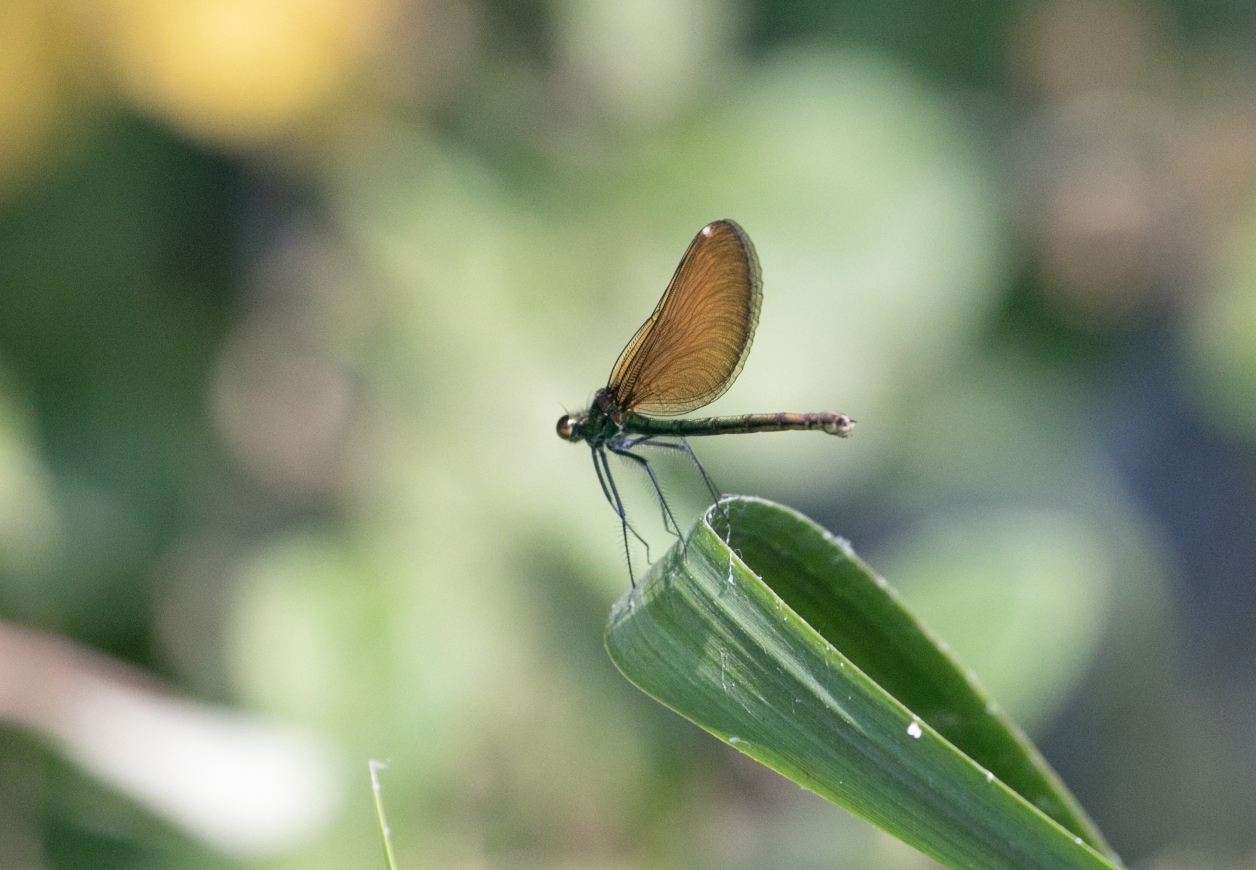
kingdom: Animalia
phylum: Arthropoda
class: Insecta
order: Odonata
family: Calopterygidae
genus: Calopteryx
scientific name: Calopteryx virgo
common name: Beautiful demoiselle
